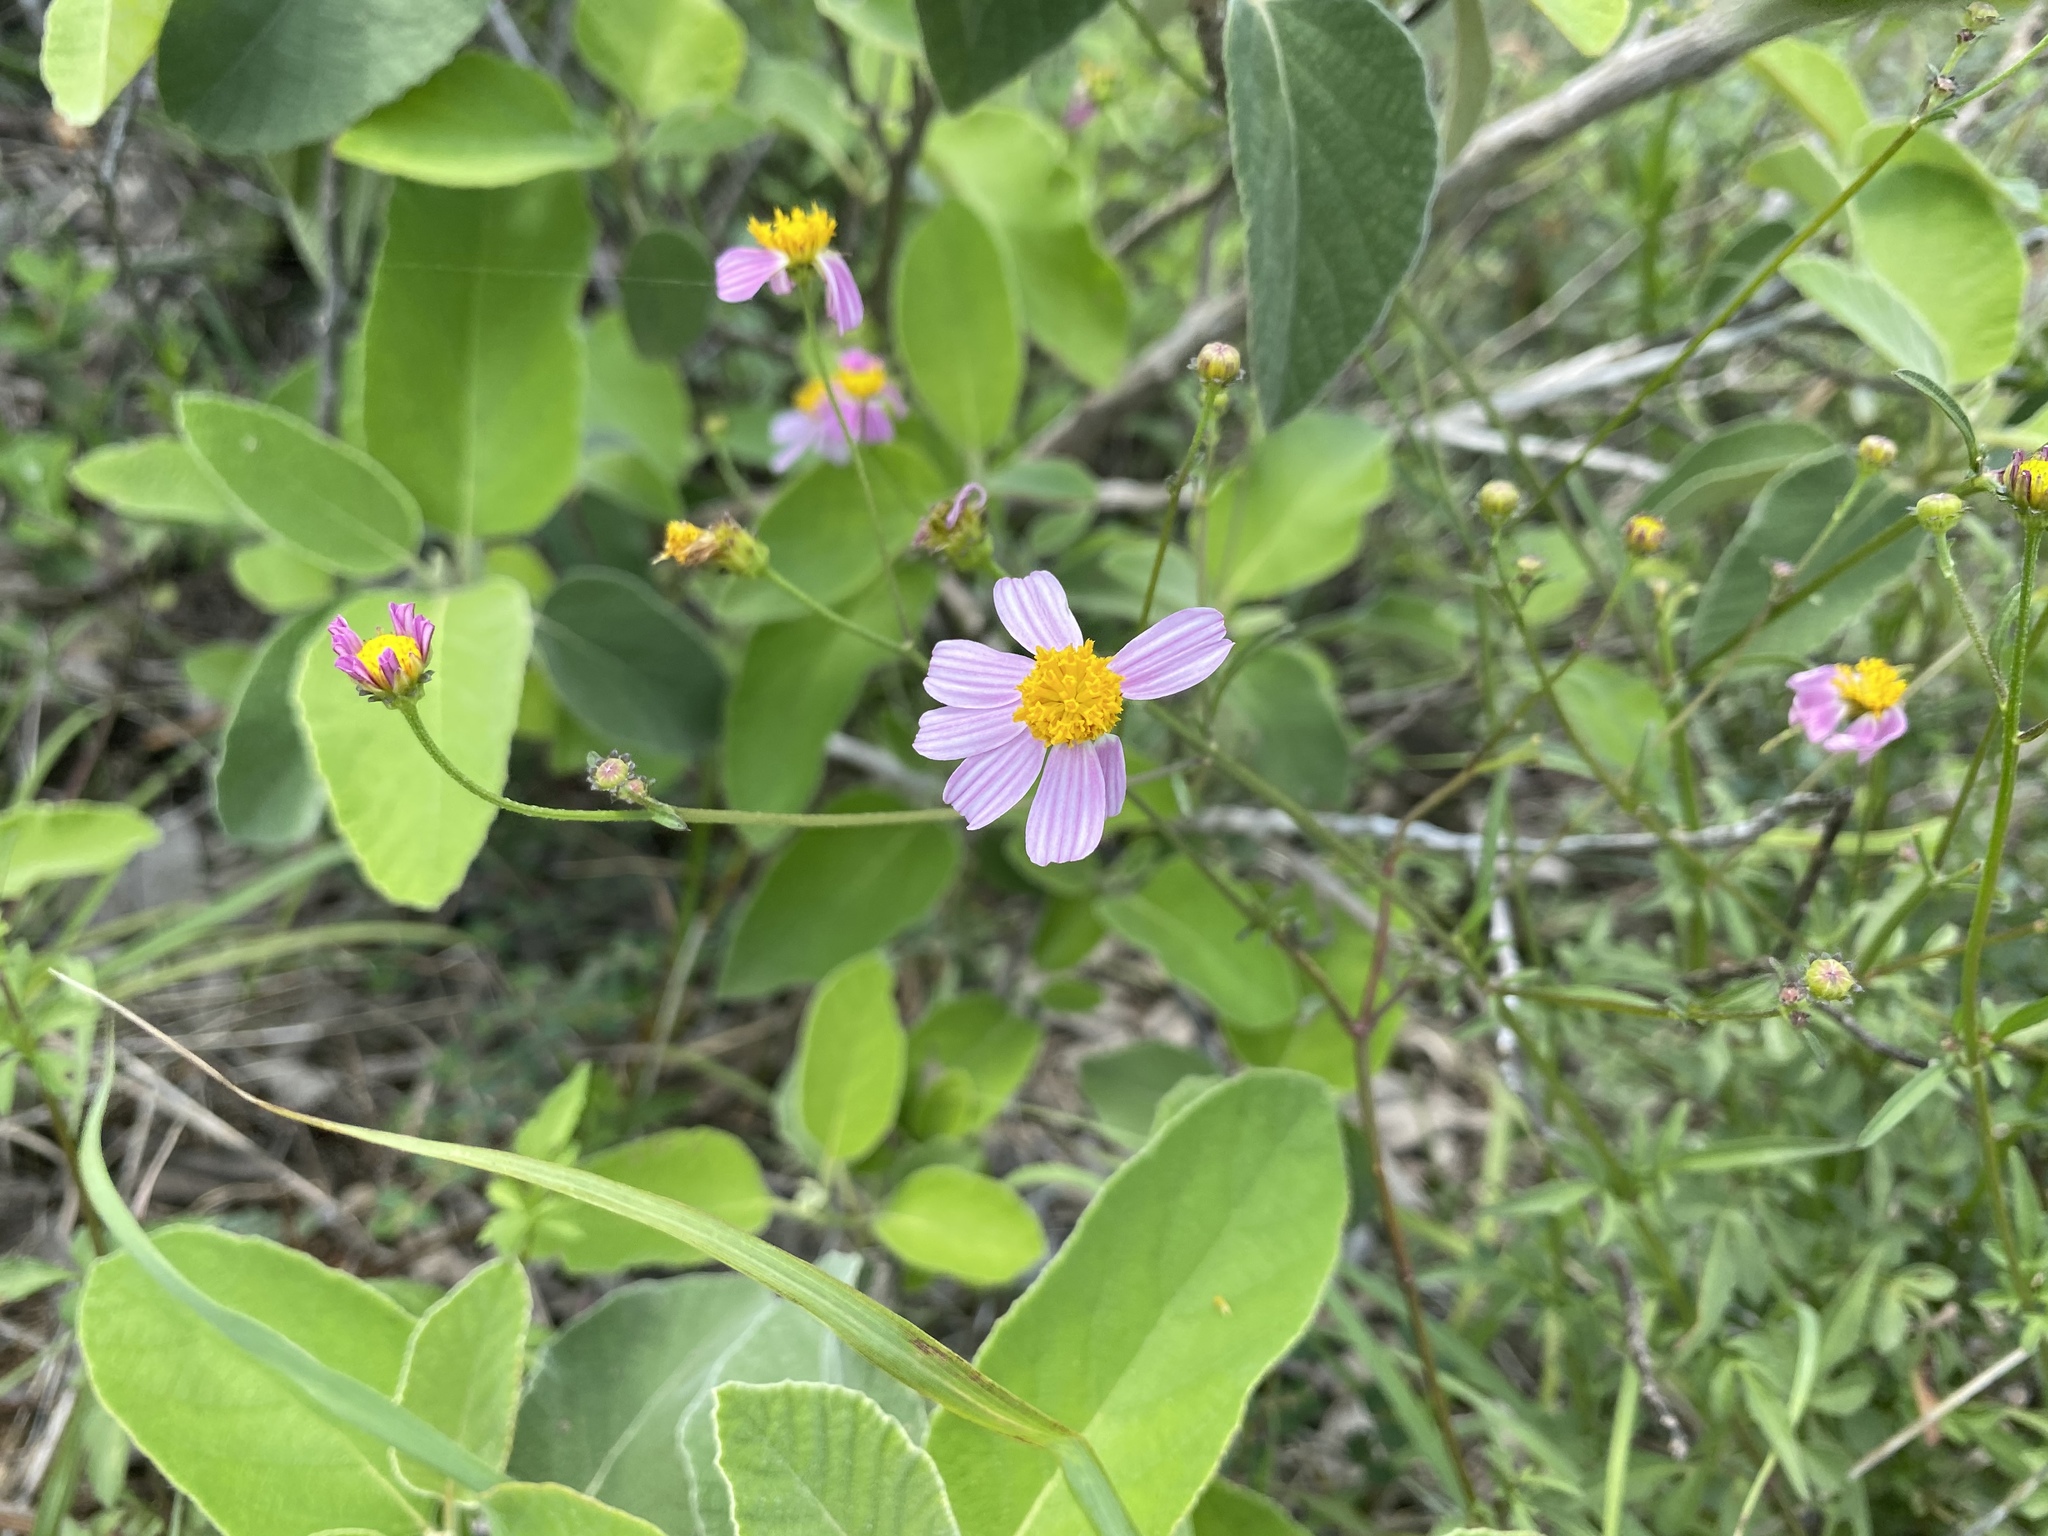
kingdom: Plantae
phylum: Tracheophyta
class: Magnoliopsida
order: Asterales
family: Asteraceae
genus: Bidens
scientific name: Bidens odorata
